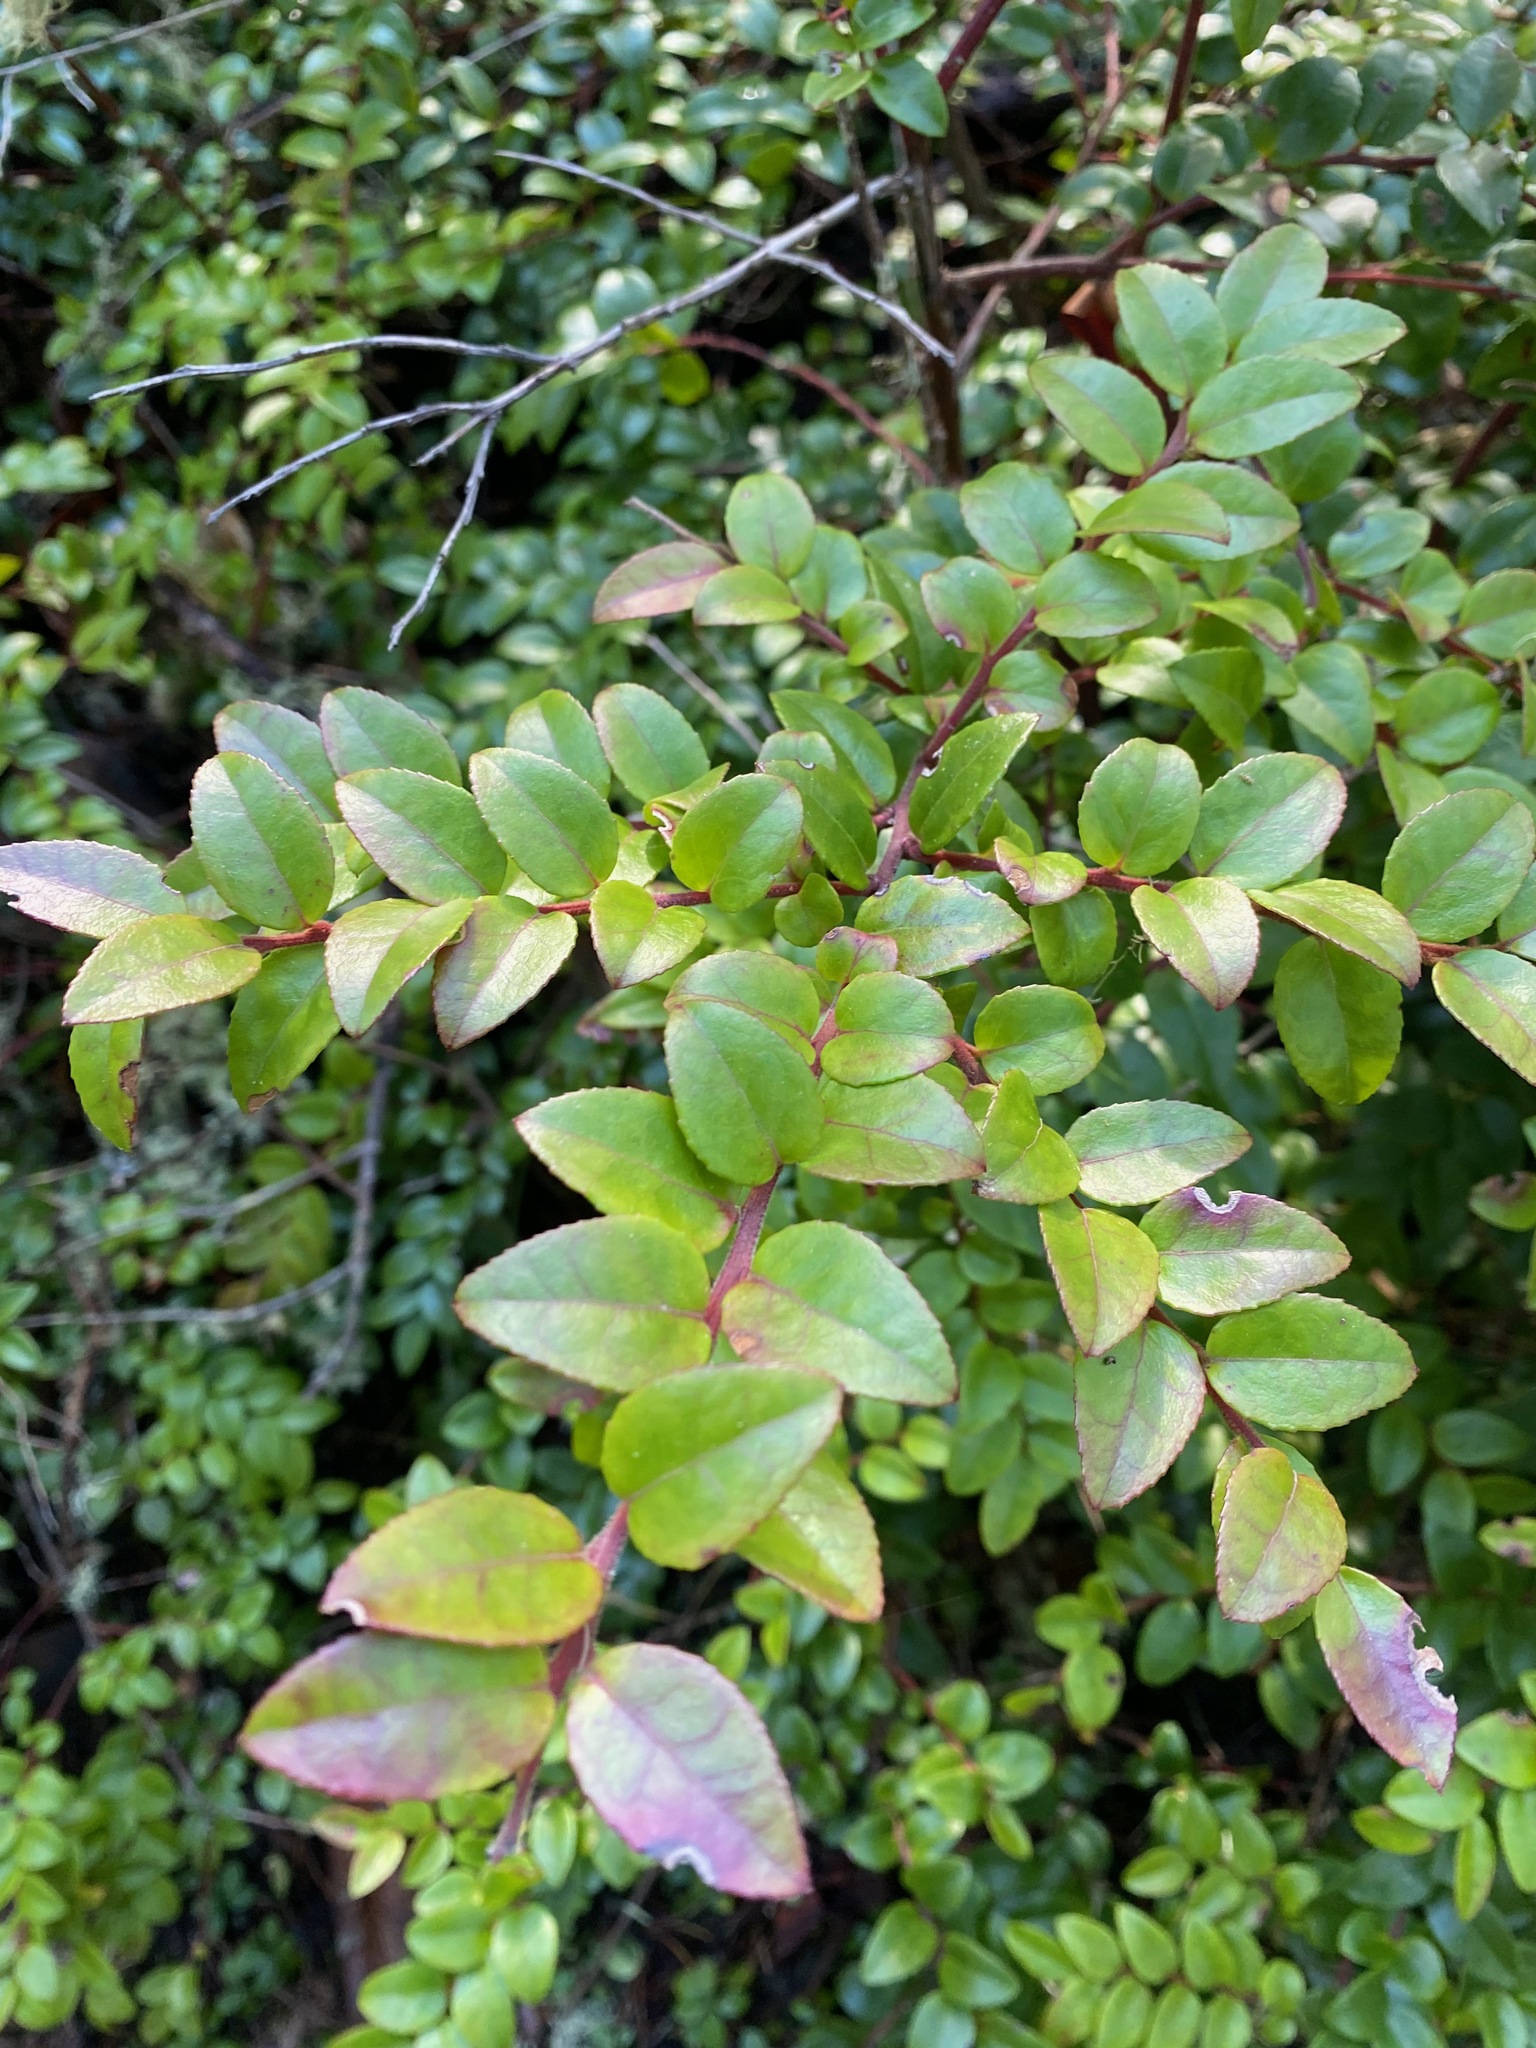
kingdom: Plantae
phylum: Tracheophyta
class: Magnoliopsida
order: Ericales
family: Ericaceae
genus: Vaccinium
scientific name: Vaccinium ovatum
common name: California-huckleberry
